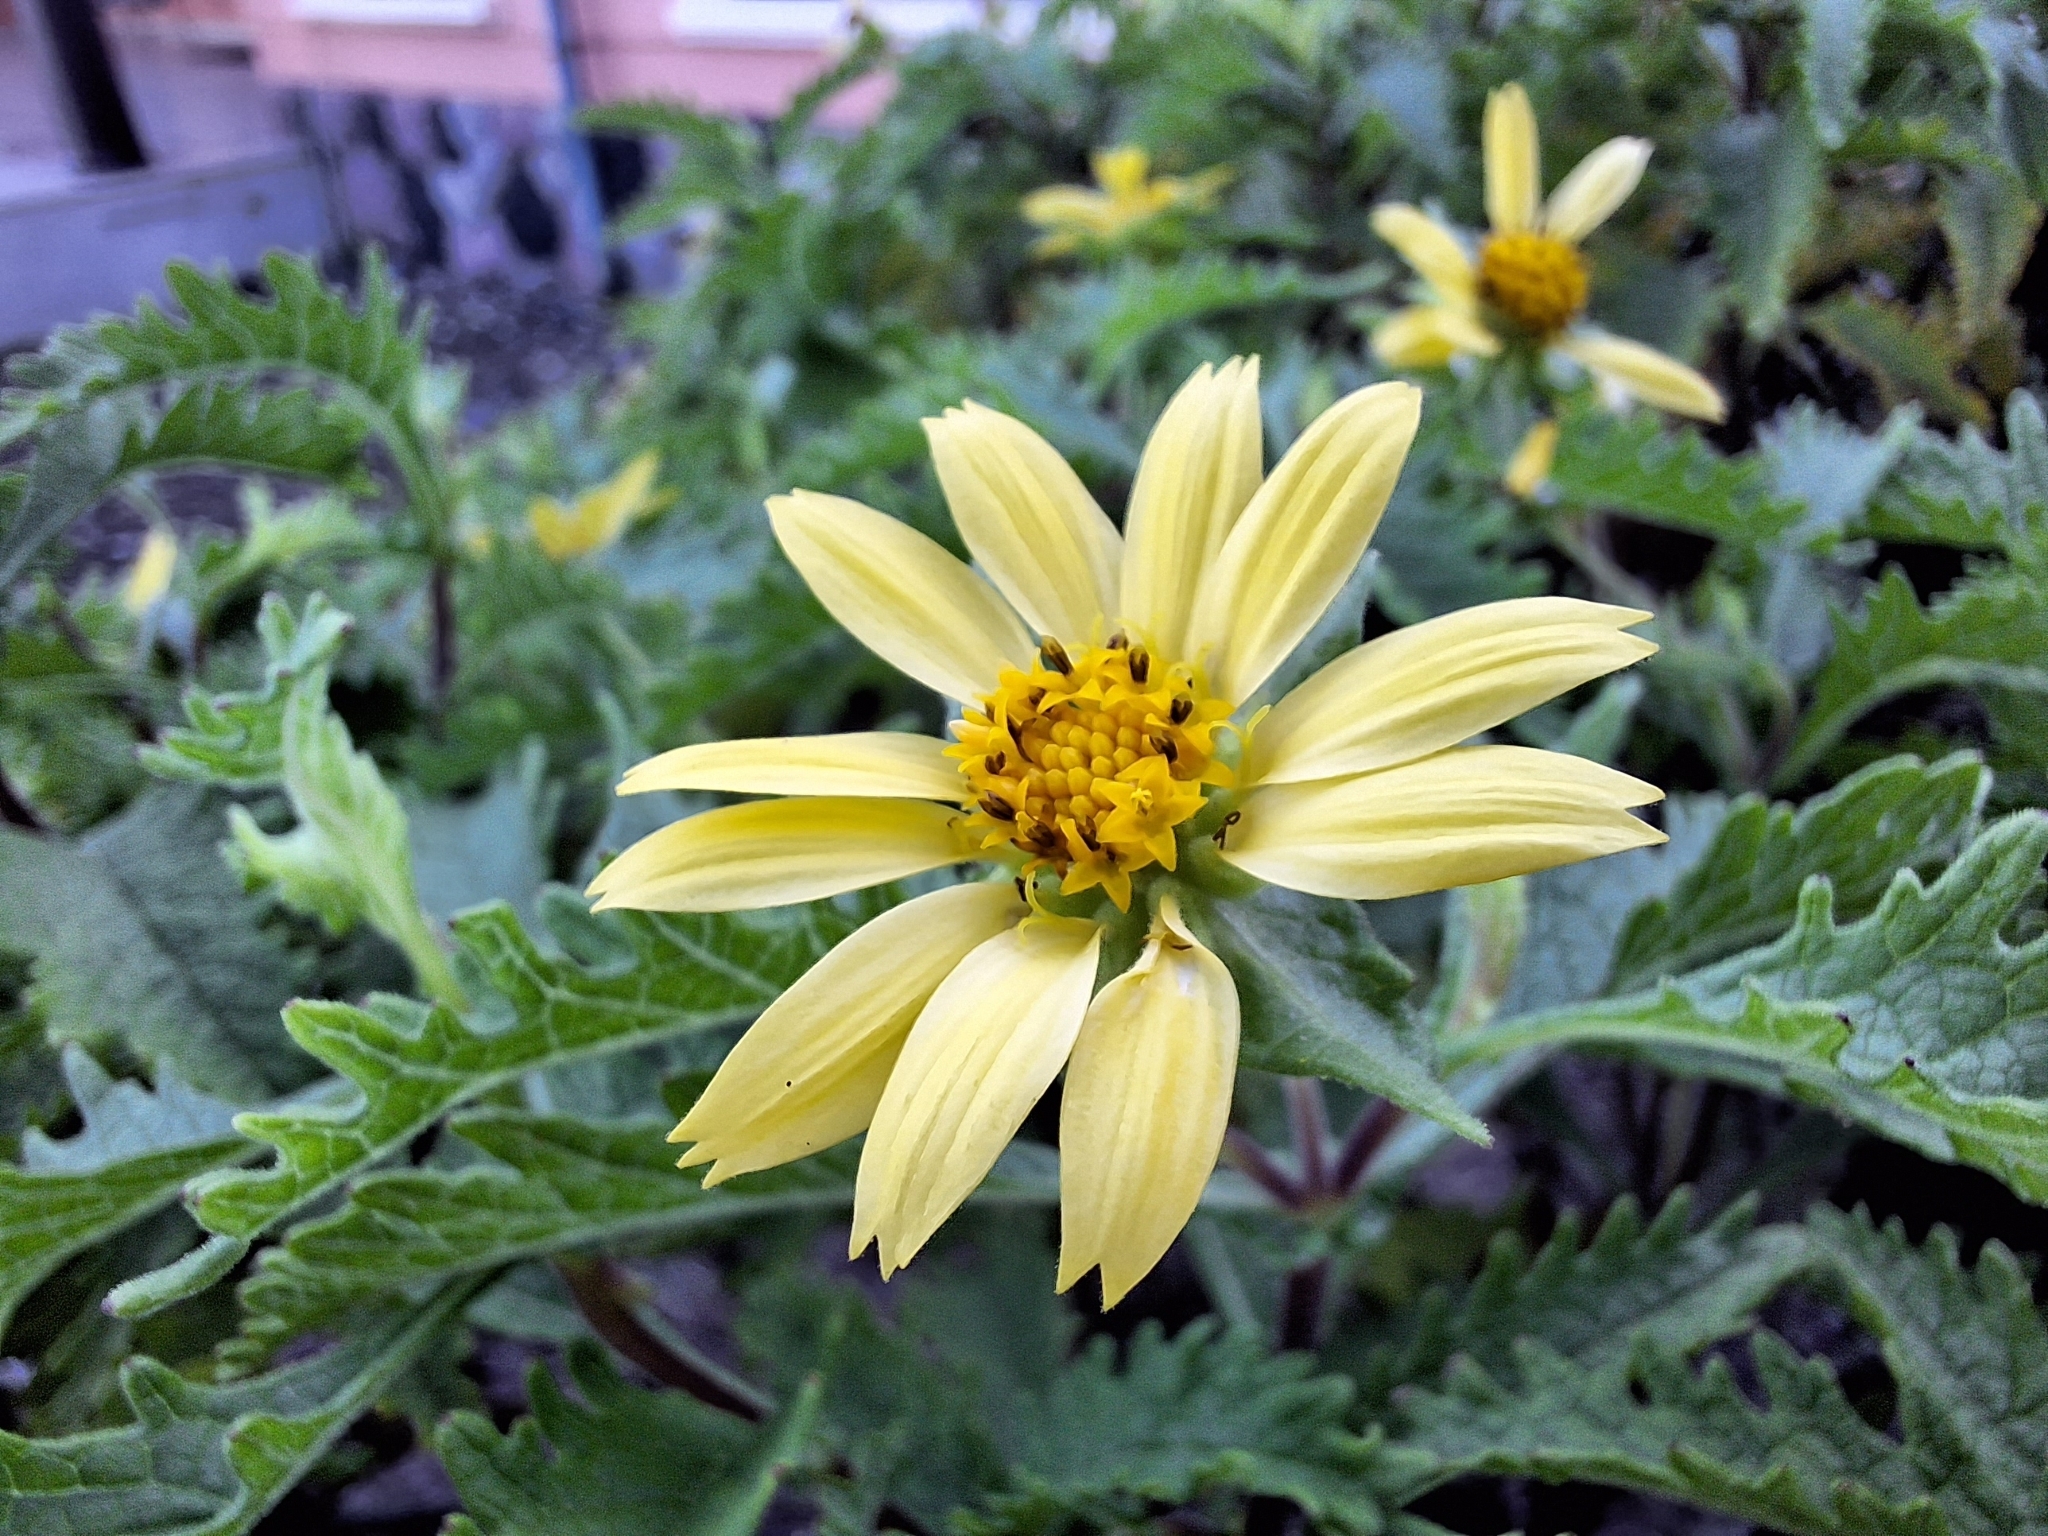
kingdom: Plantae
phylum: Tracheophyta
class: Magnoliopsida
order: Asterales
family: Asteraceae
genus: Lecocarpus
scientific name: Lecocarpus darwinii
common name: Cut leaf daisy
